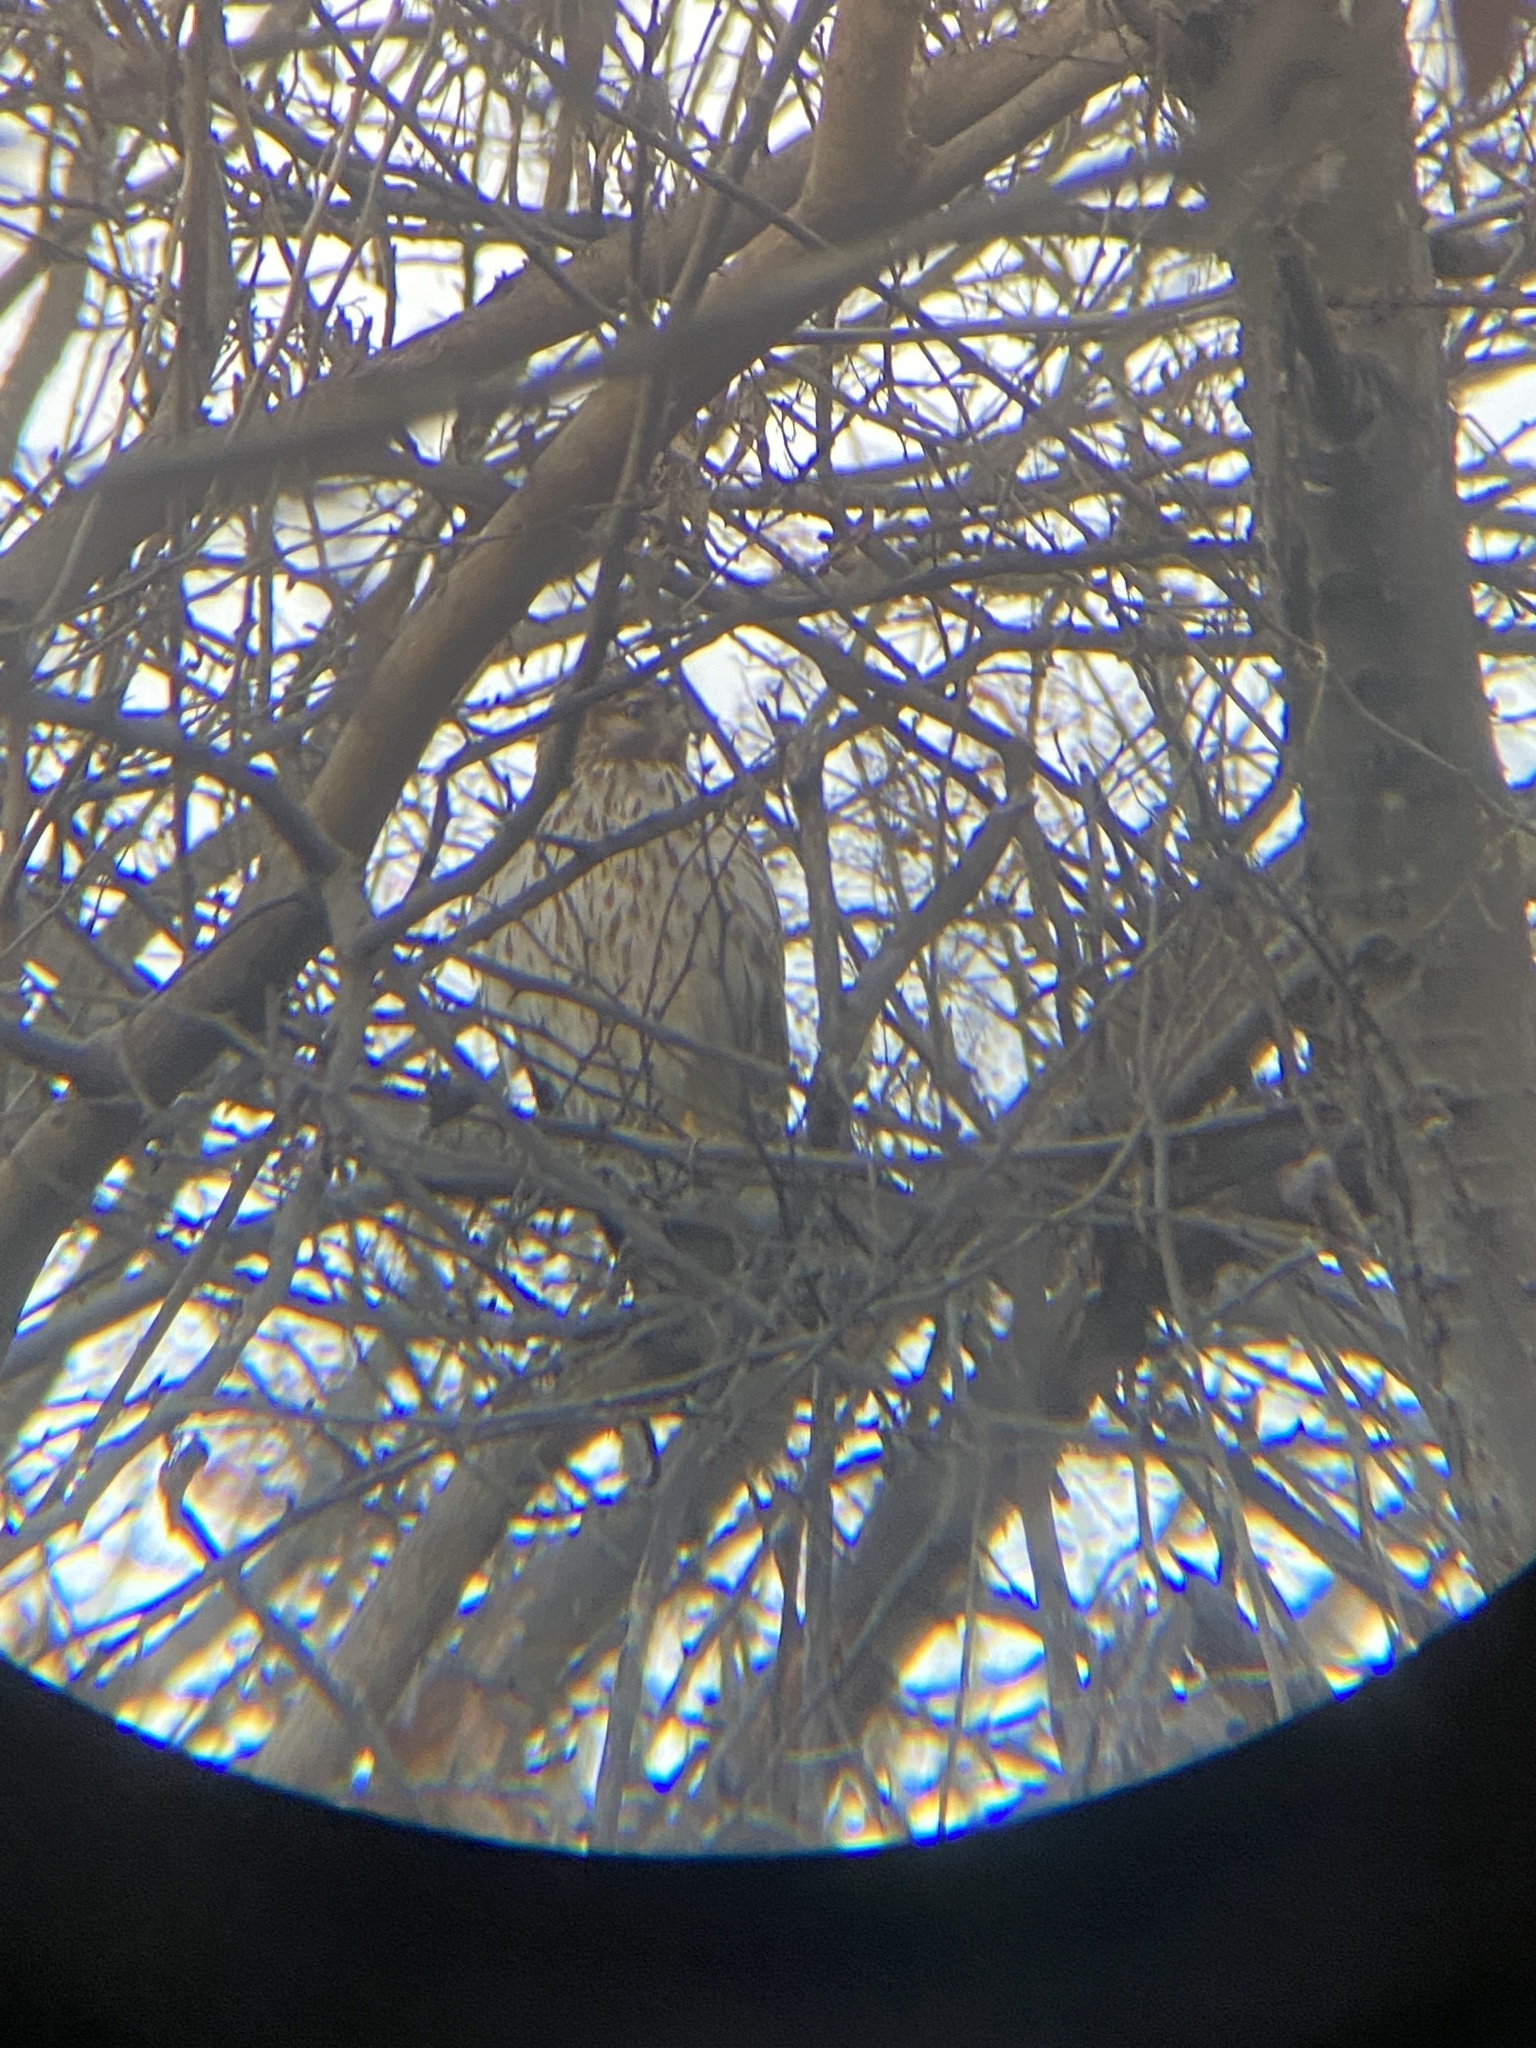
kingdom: Animalia
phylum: Chordata
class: Aves
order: Accipitriformes
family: Accipitridae
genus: Buteo
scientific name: Buteo lineatus
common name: Red-shouldered hawk
